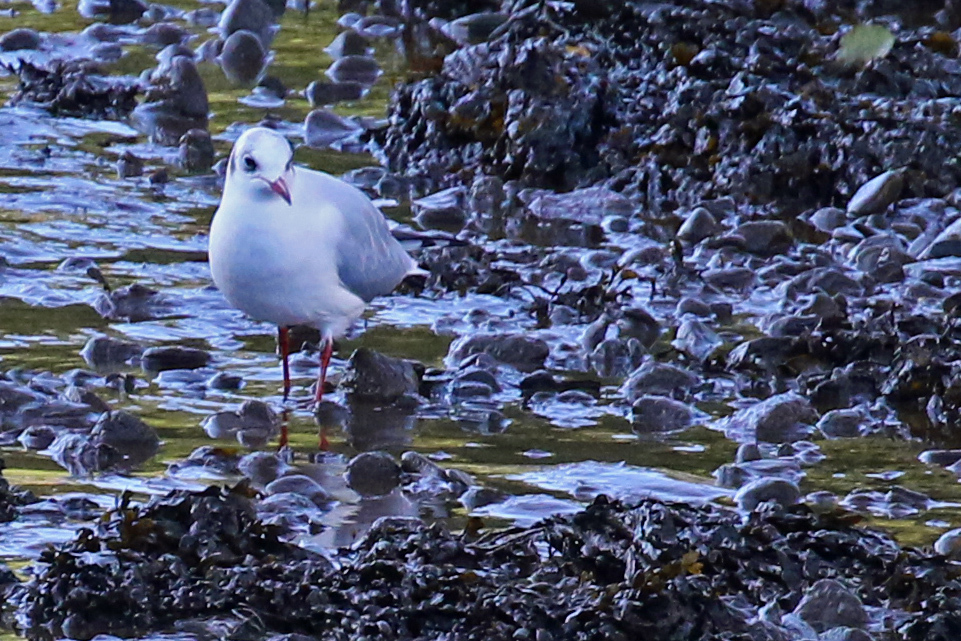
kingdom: Animalia
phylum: Chordata
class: Aves
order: Charadriiformes
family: Laridae
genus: Chroicocephalus
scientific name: Chroicocephalus ridibundus
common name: Black-headed gull
